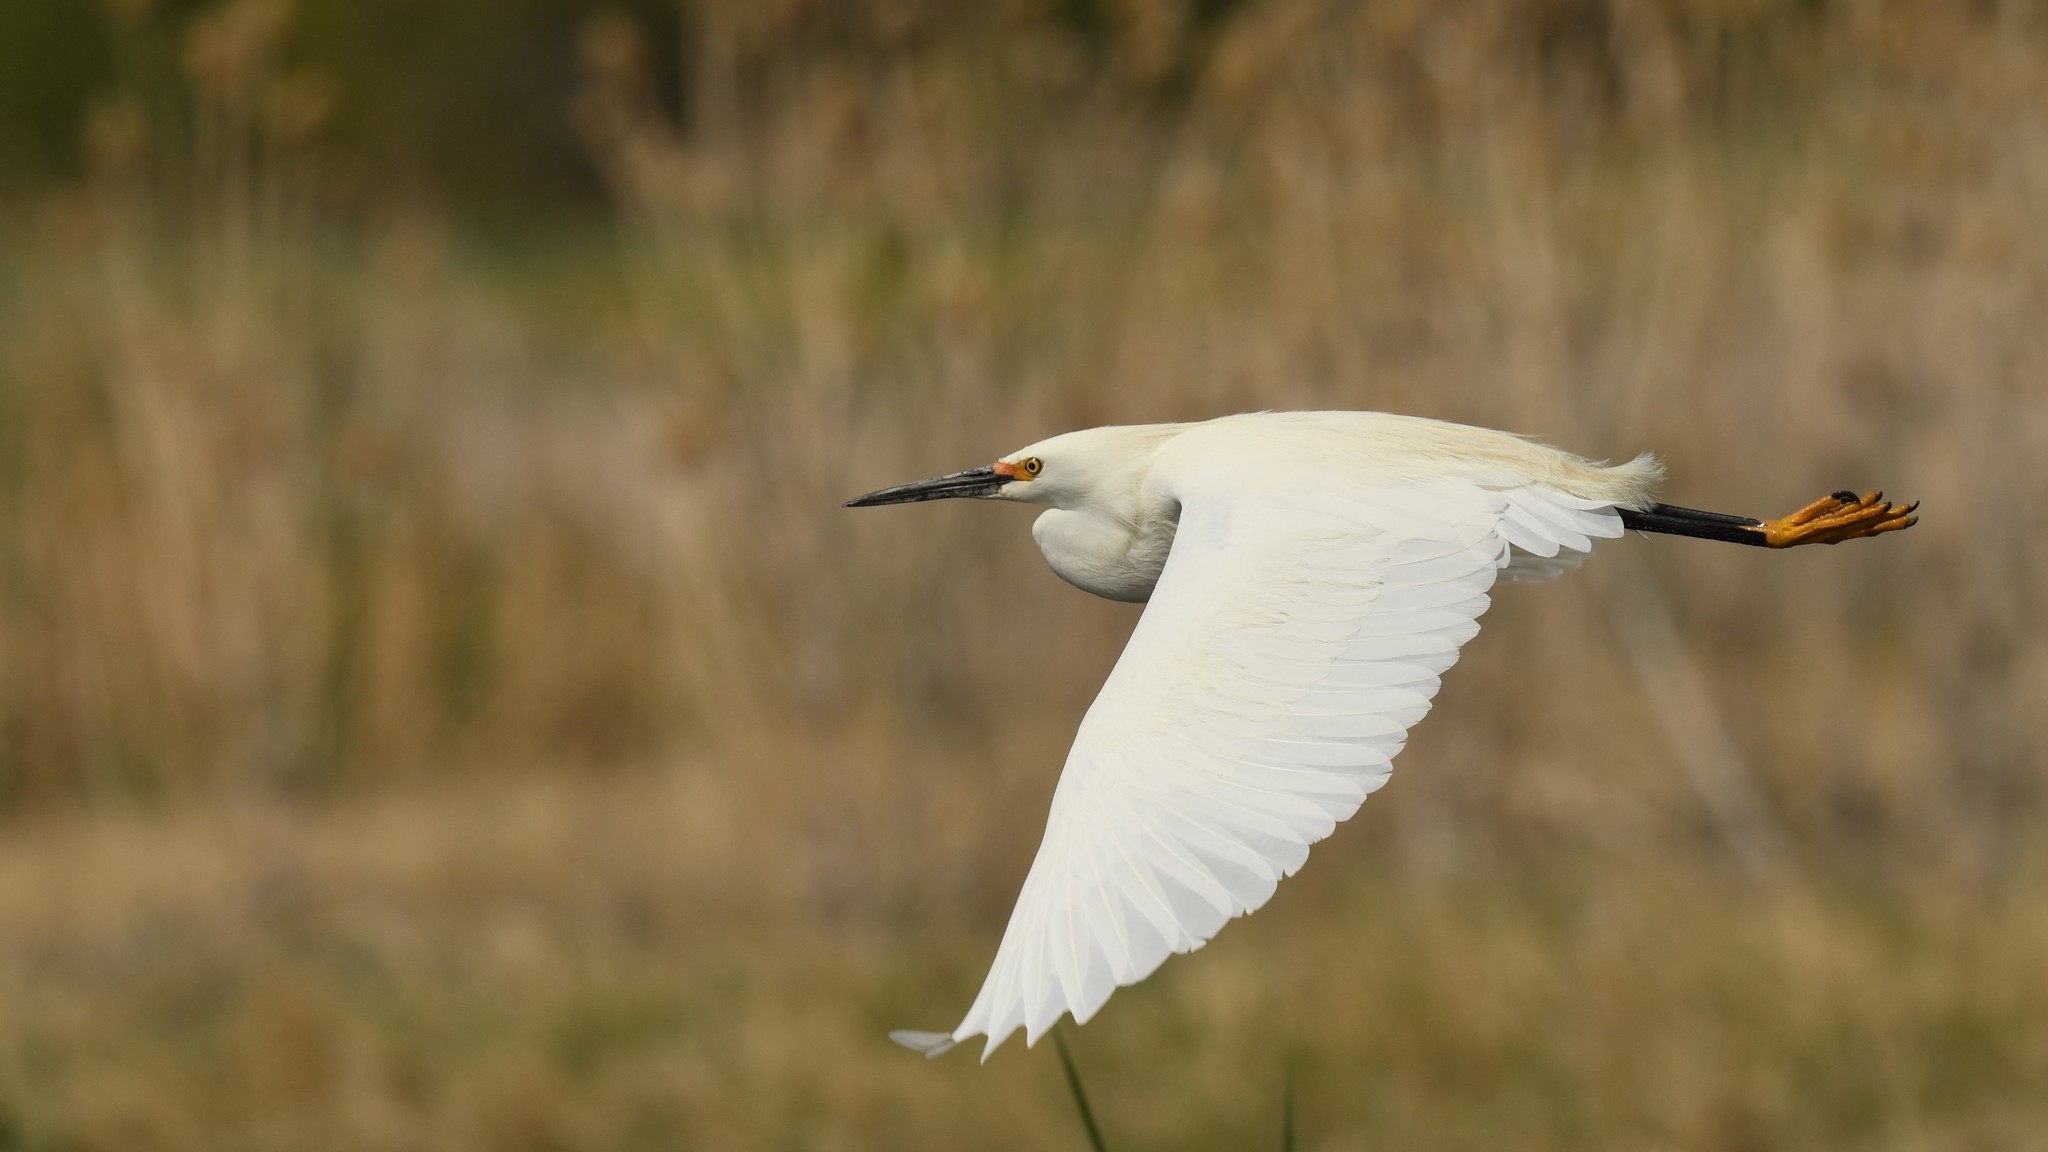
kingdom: Animalia
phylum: Chordata
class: Aves
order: Pelecaniformes
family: Ardeidae
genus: Egretta
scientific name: Egretta thula
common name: Snowy egret
